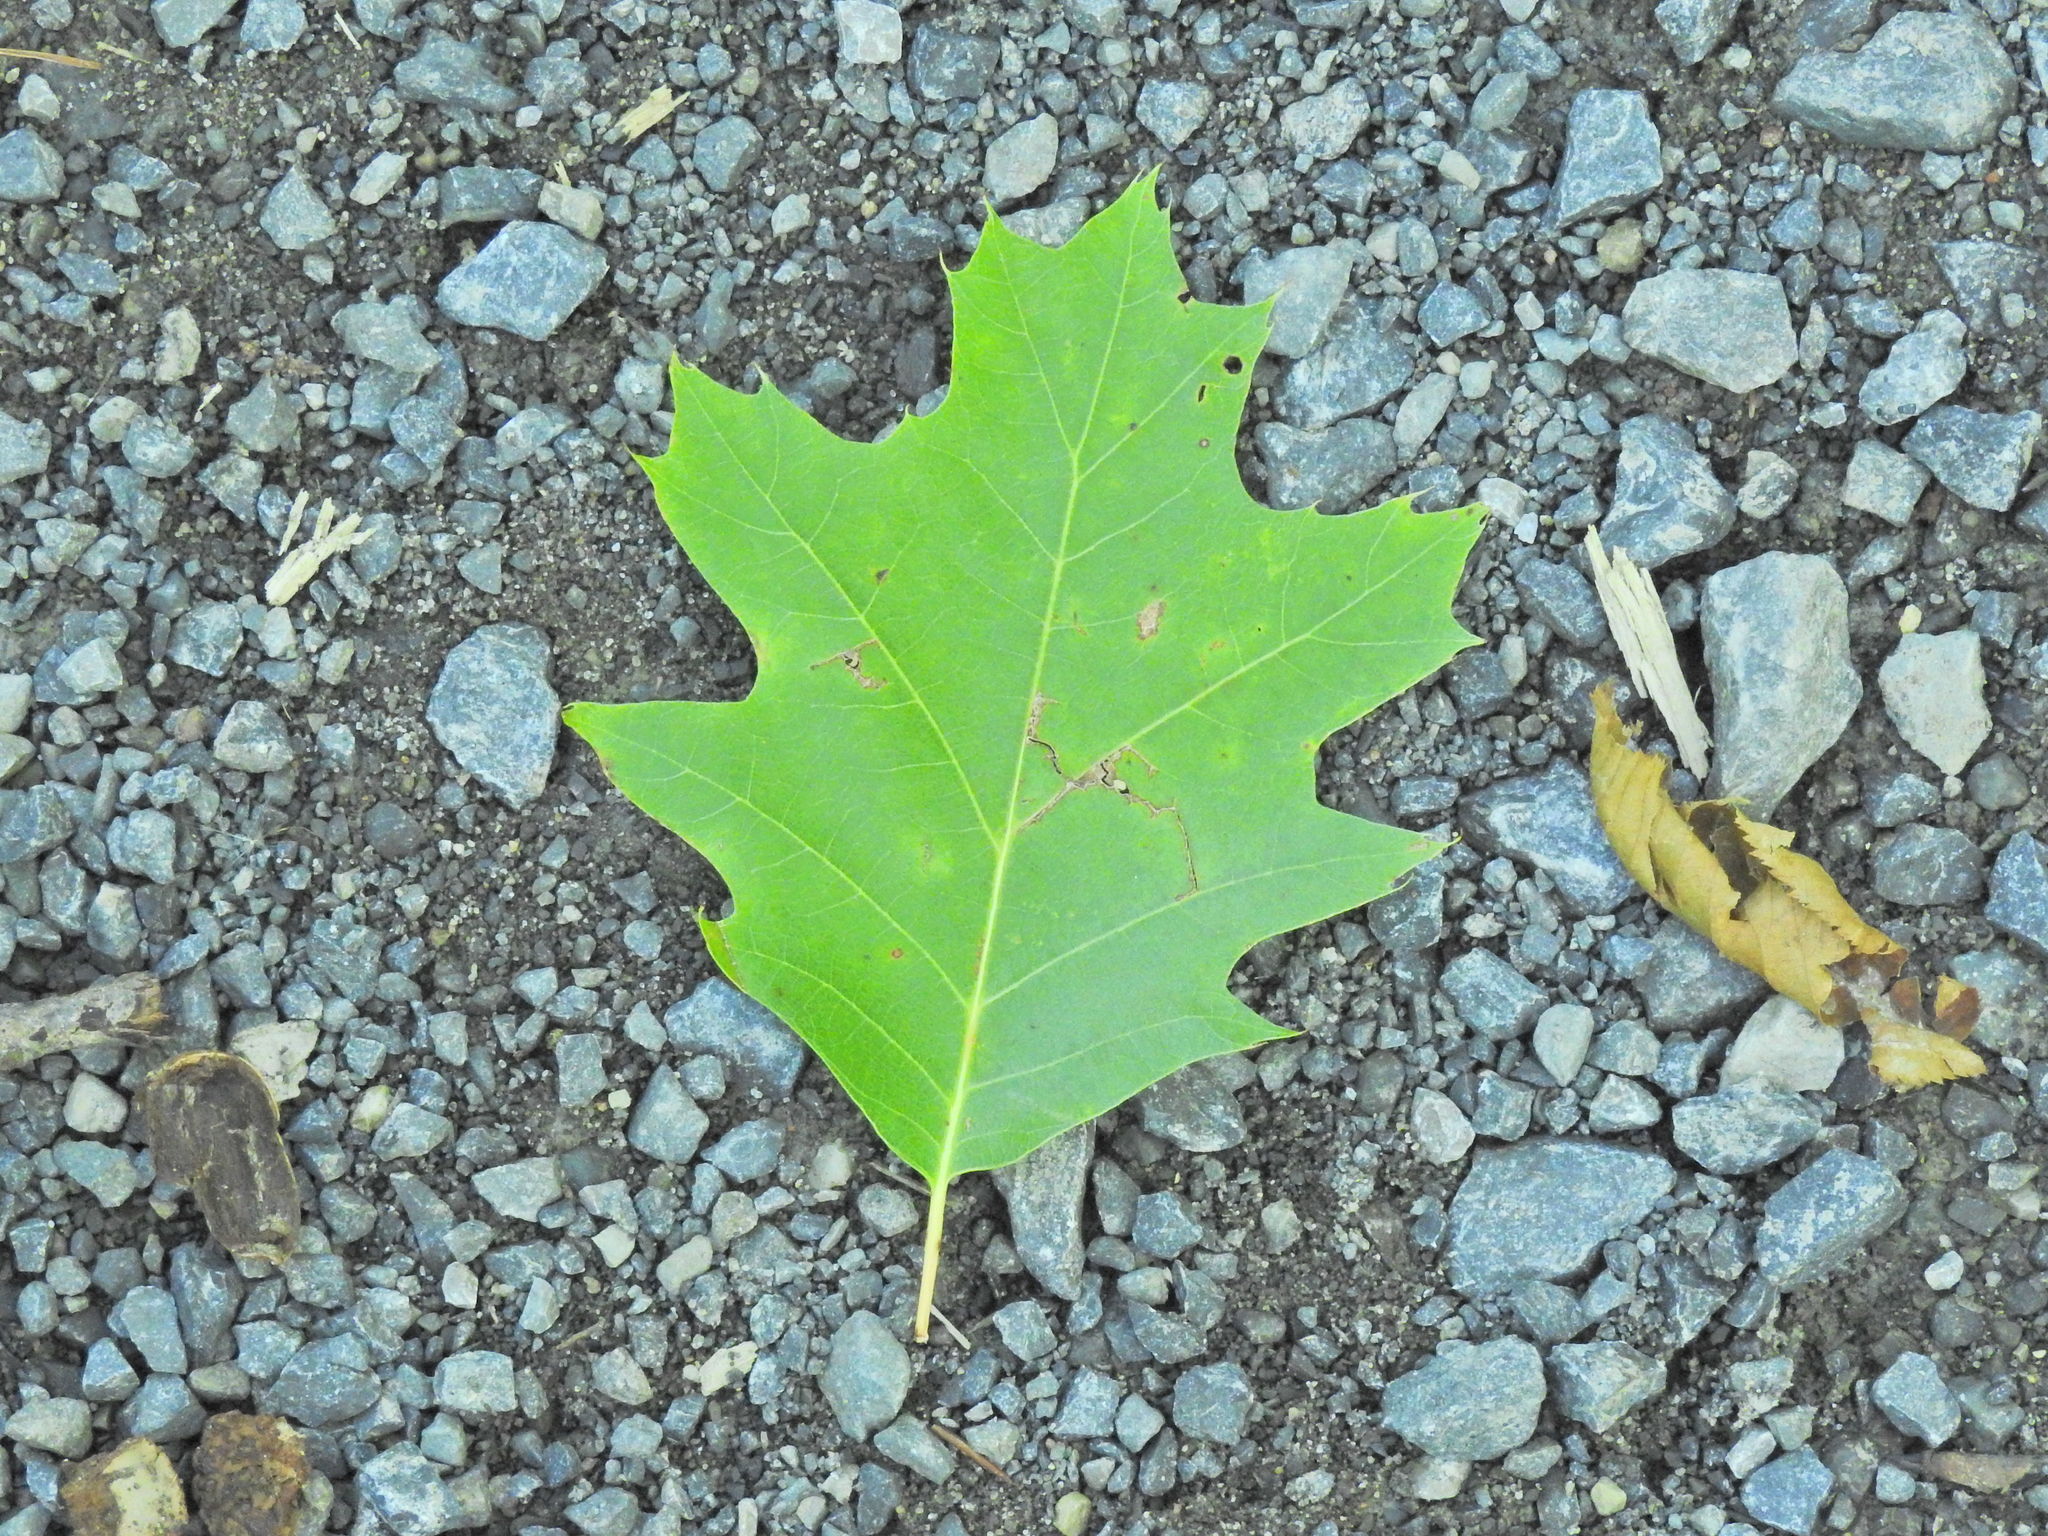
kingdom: Plantae
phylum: Tracheophyta
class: Magnoliopsida
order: Fagales
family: Fagaceae
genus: Quercus
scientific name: Quercus rubra
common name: Red oak
